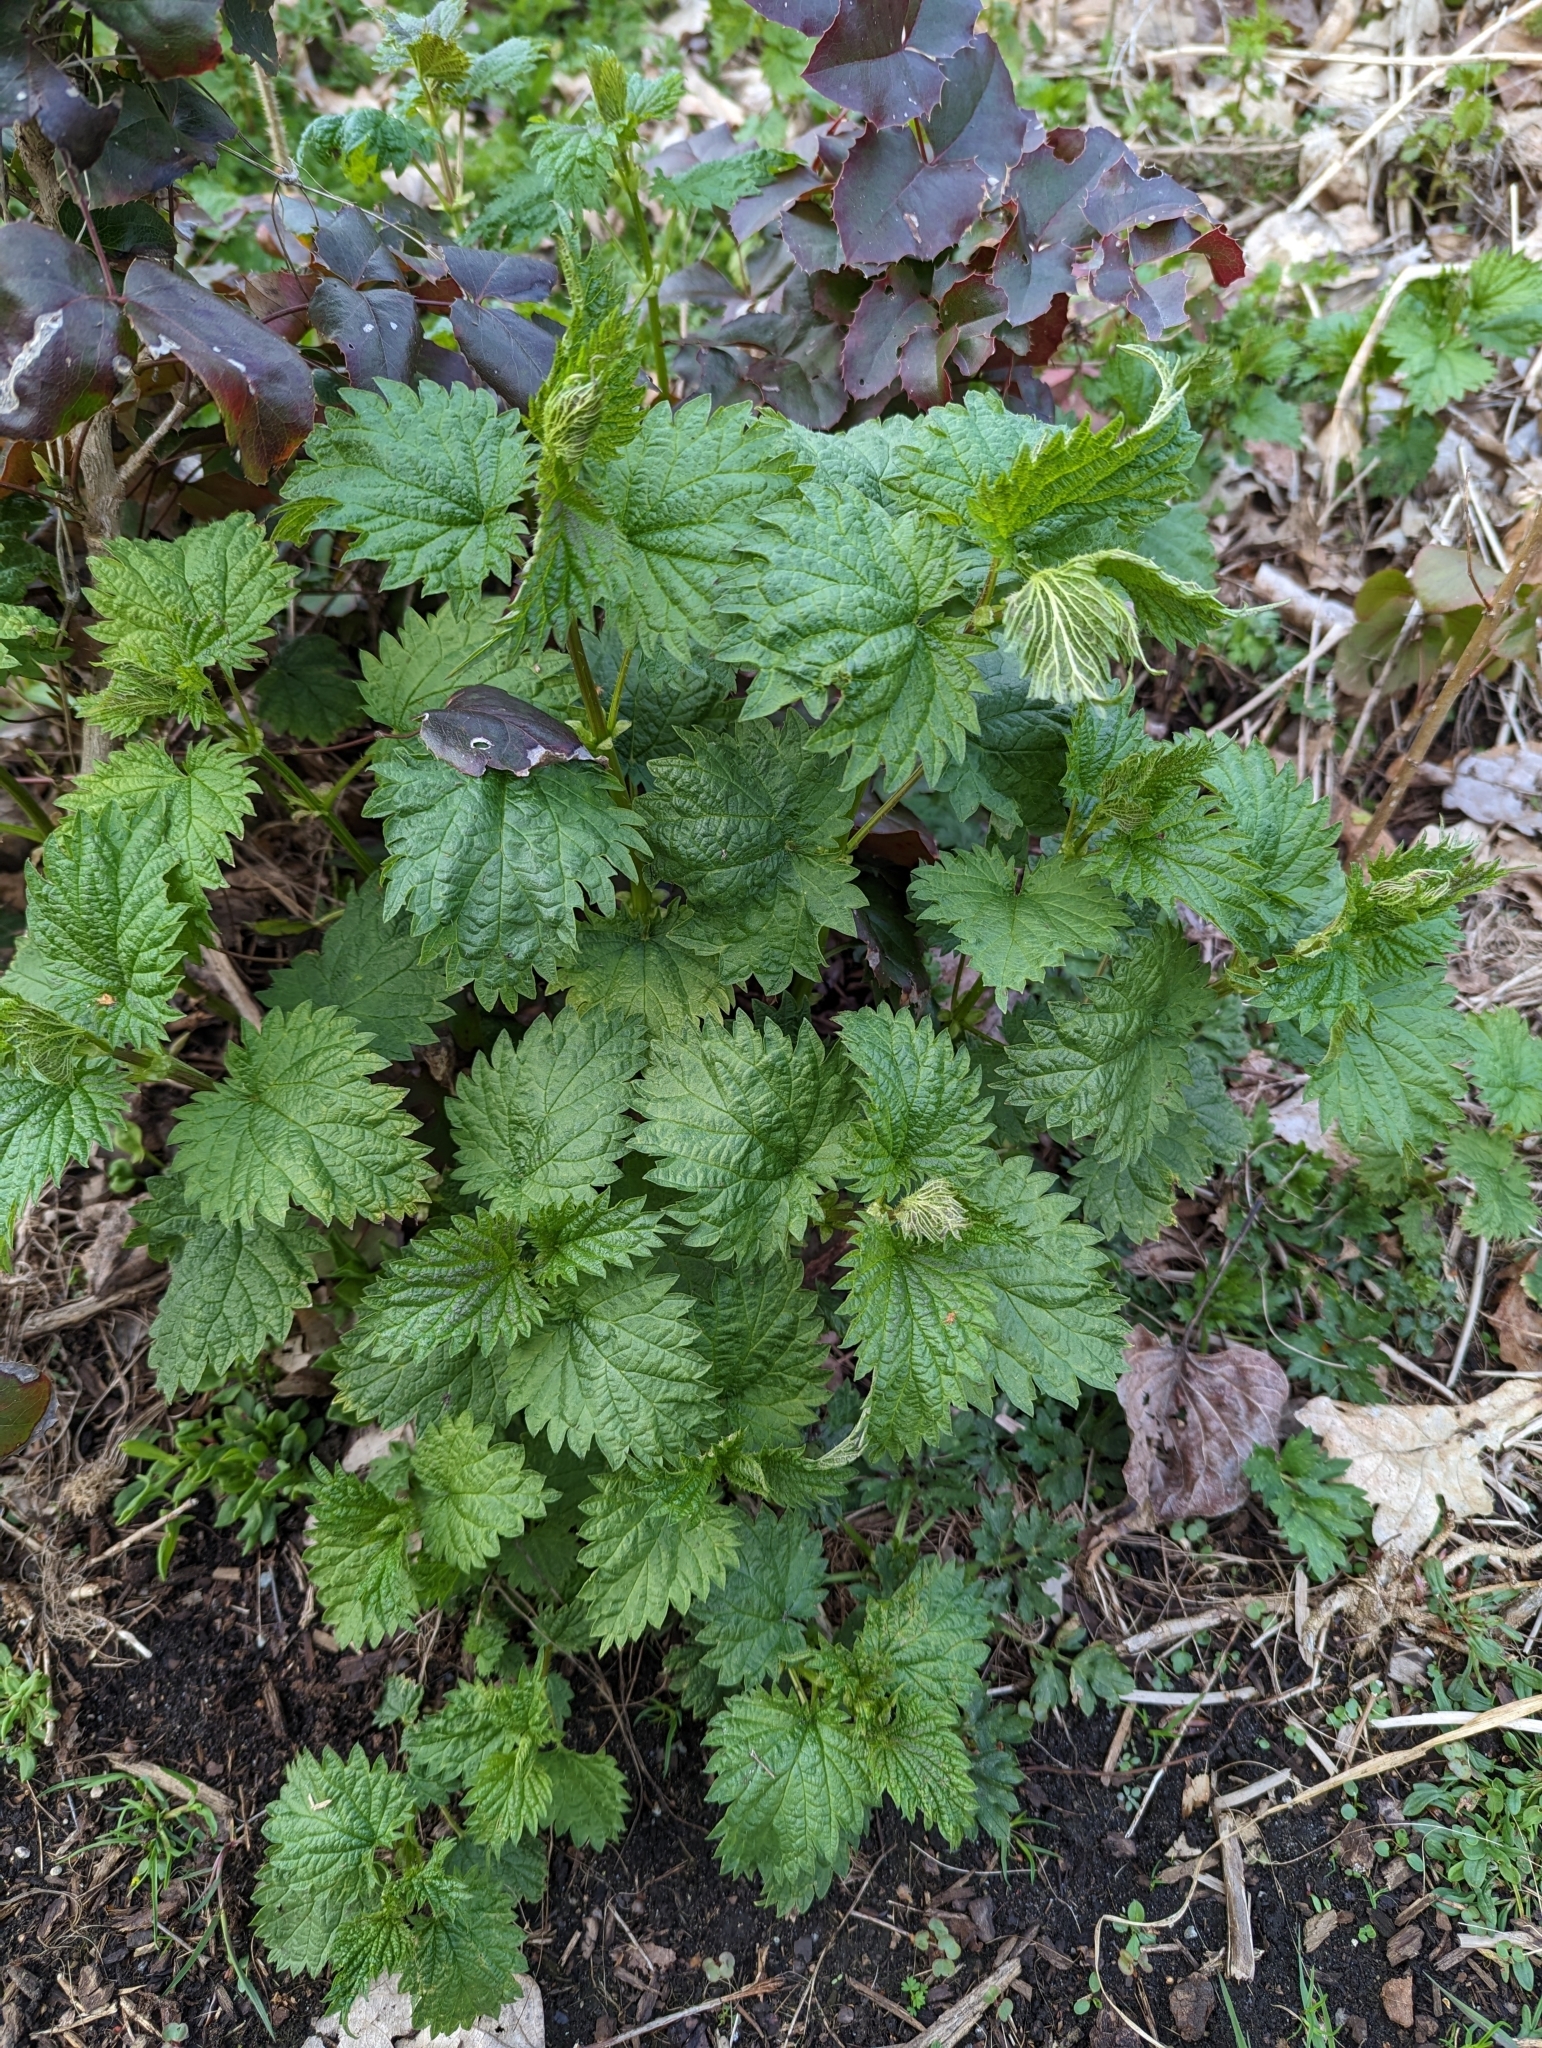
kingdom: Plantae
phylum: Tracheophyta
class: Magnoliopsida
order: Rosales
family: Urticaceae
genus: Urtica
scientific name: Urtica dioica
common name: Common nettle
